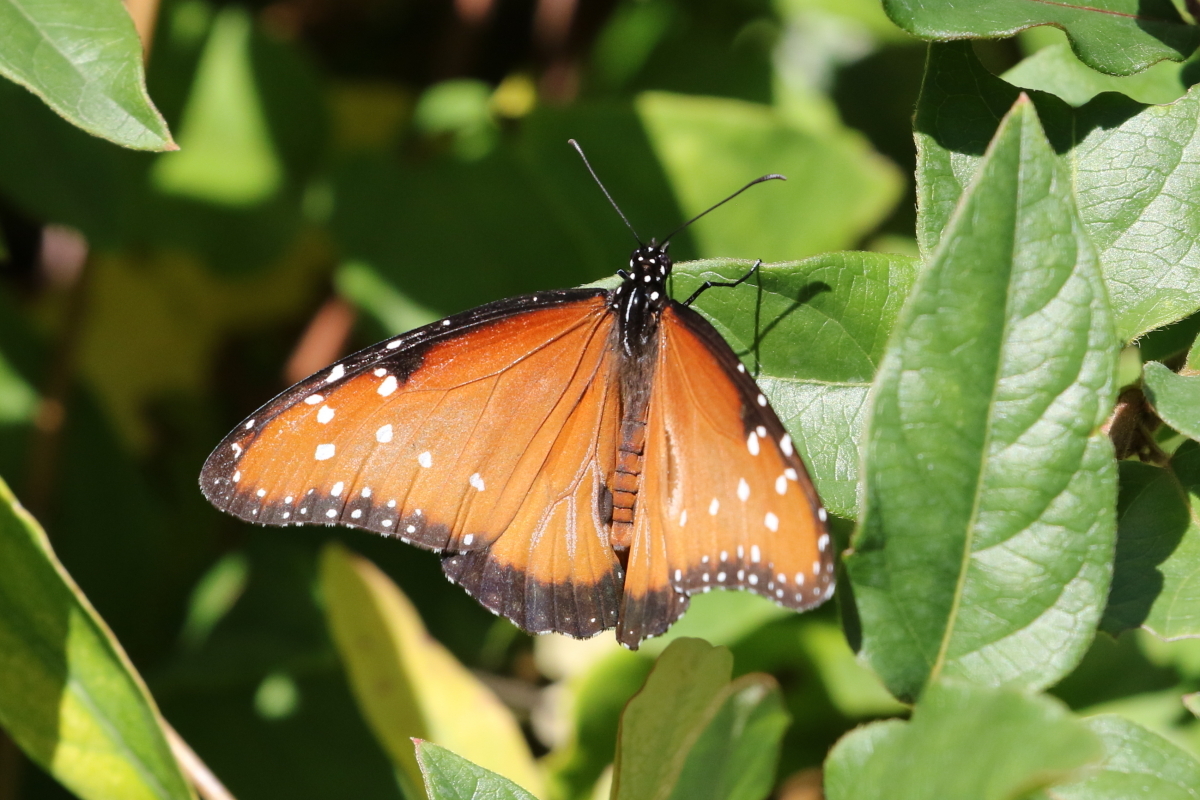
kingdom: Animalia
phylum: Arthropoda
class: Insecta
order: Lepidoptera
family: Nymphalidae
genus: Danaus
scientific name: Danaus gilippus
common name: Queen
